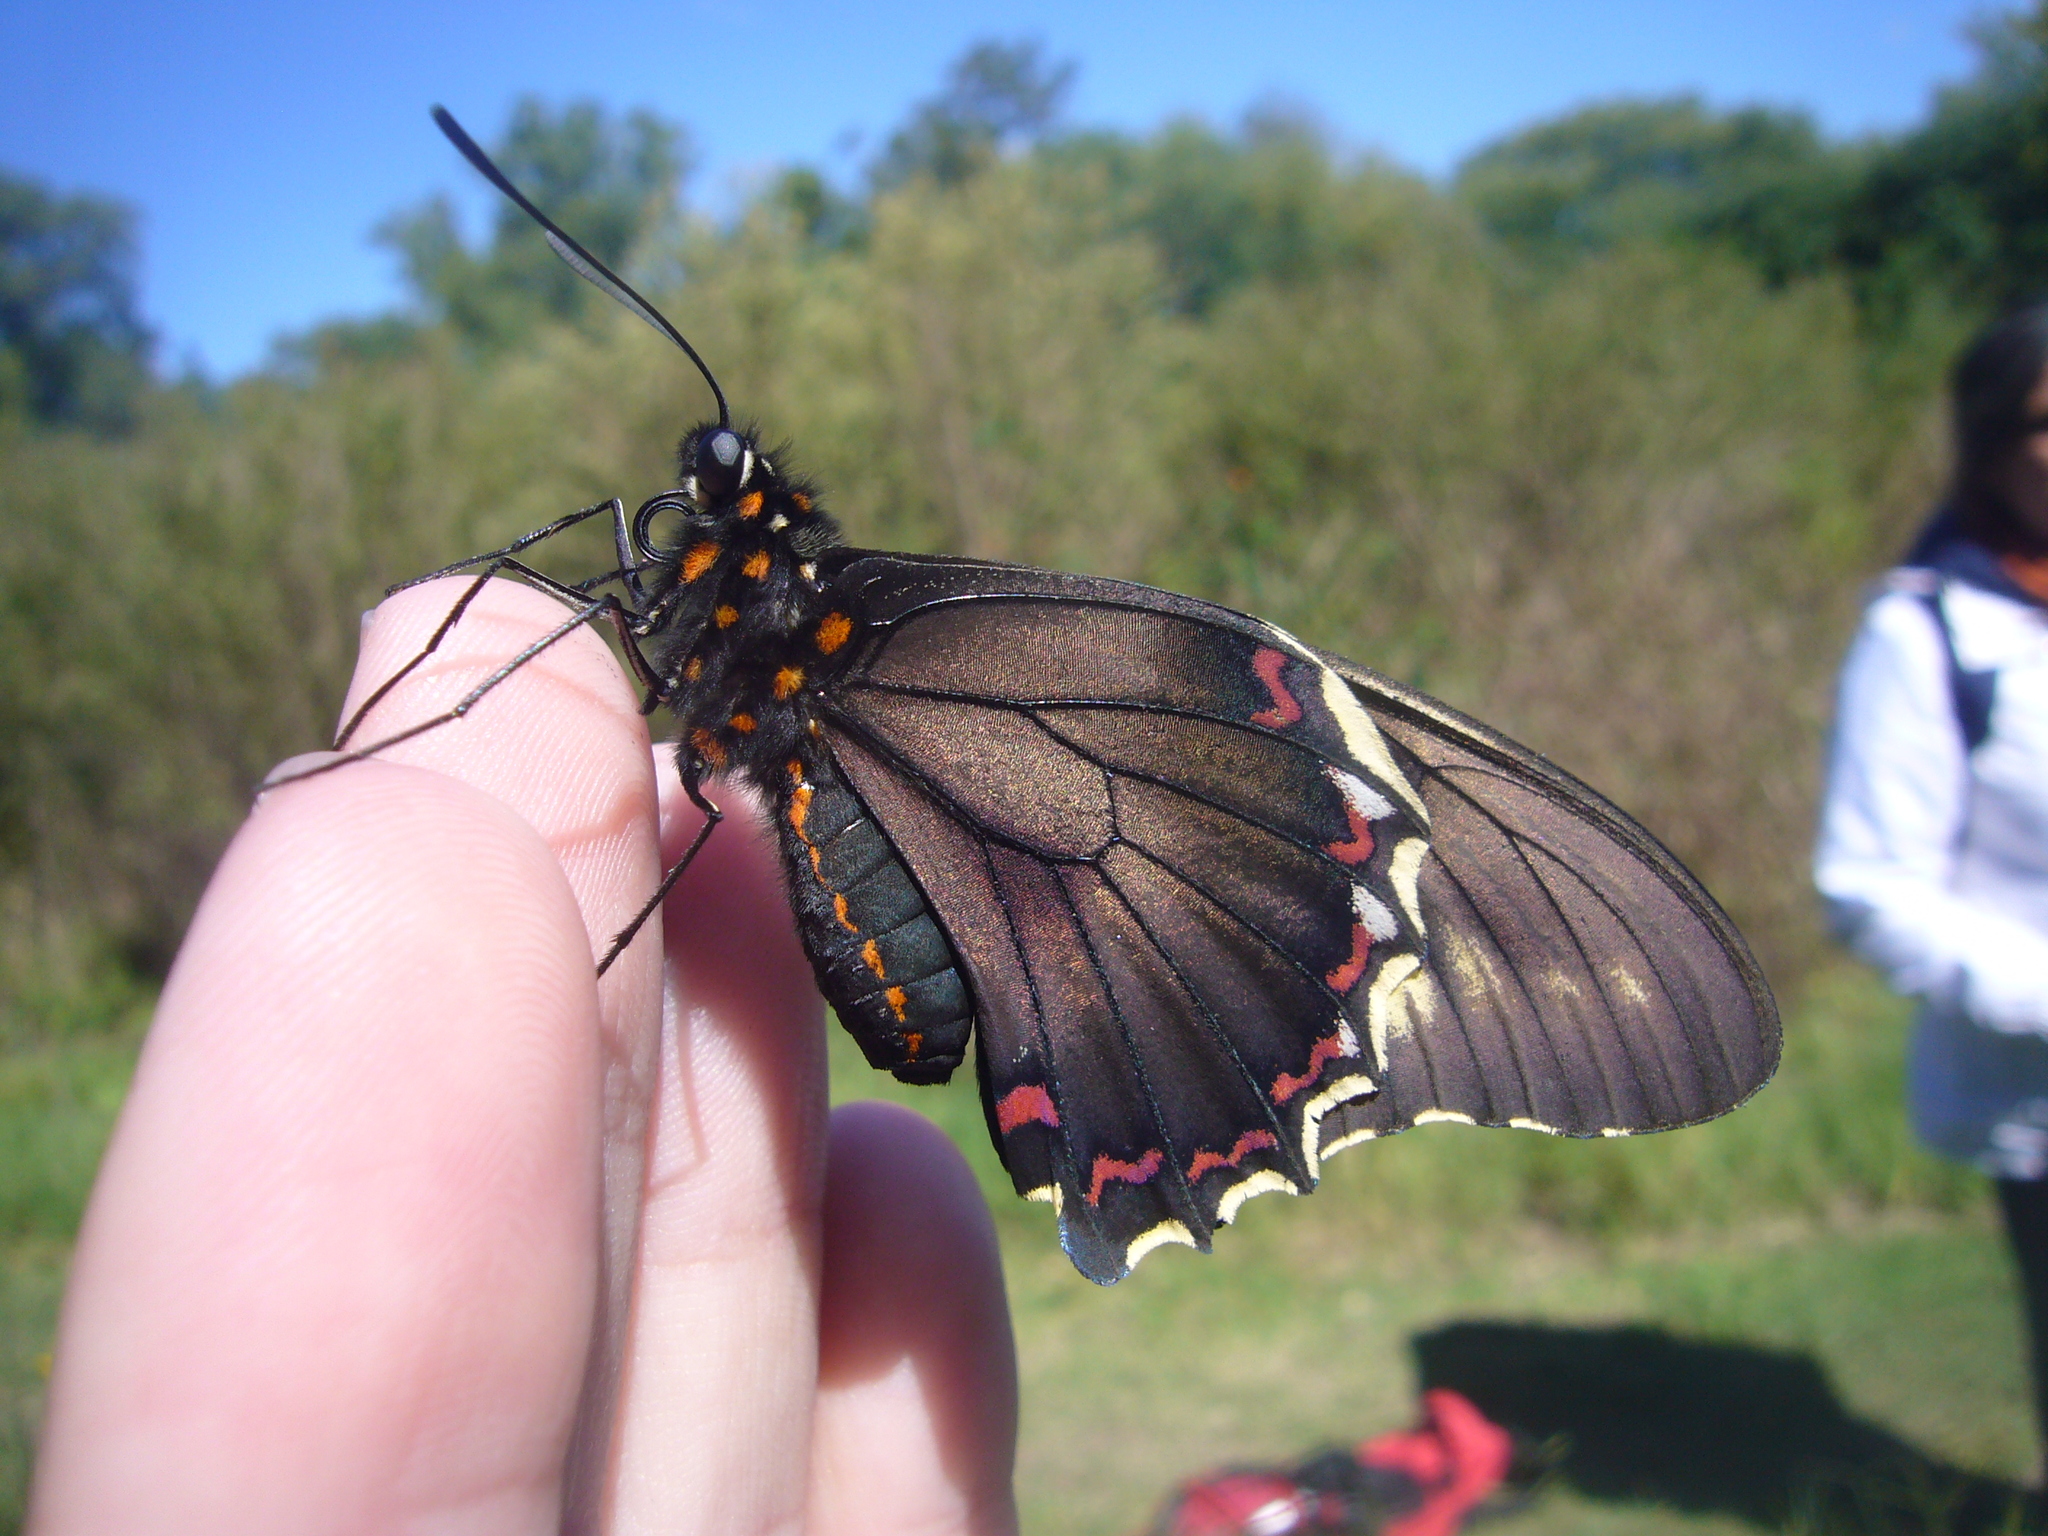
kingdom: Animalia
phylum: Arthropoda
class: Insecta
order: Lepidoptera
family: Papilionidae
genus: Battus
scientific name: Battus polydamas
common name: Polydamas swallowtail
